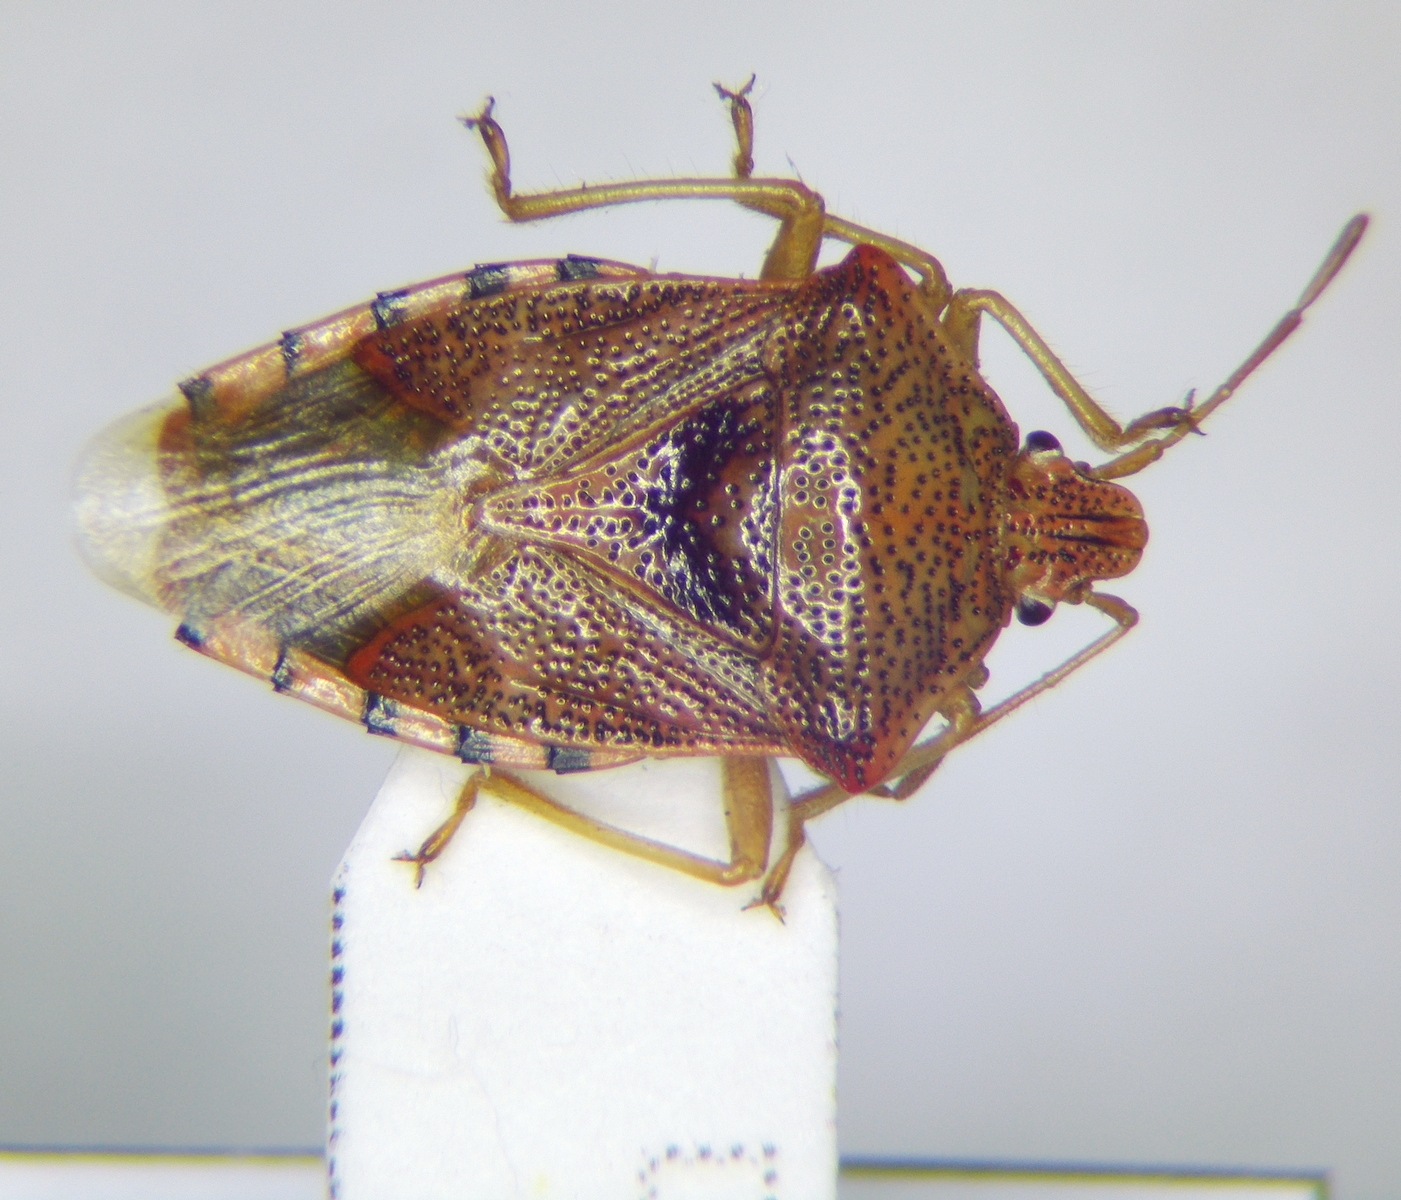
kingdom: Animalia
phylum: Arthropoda
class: Insecta
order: Hemiptera
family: Acanthosomatidae
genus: Elasmucha
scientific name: Elasmucha grisea
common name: Parent bug
